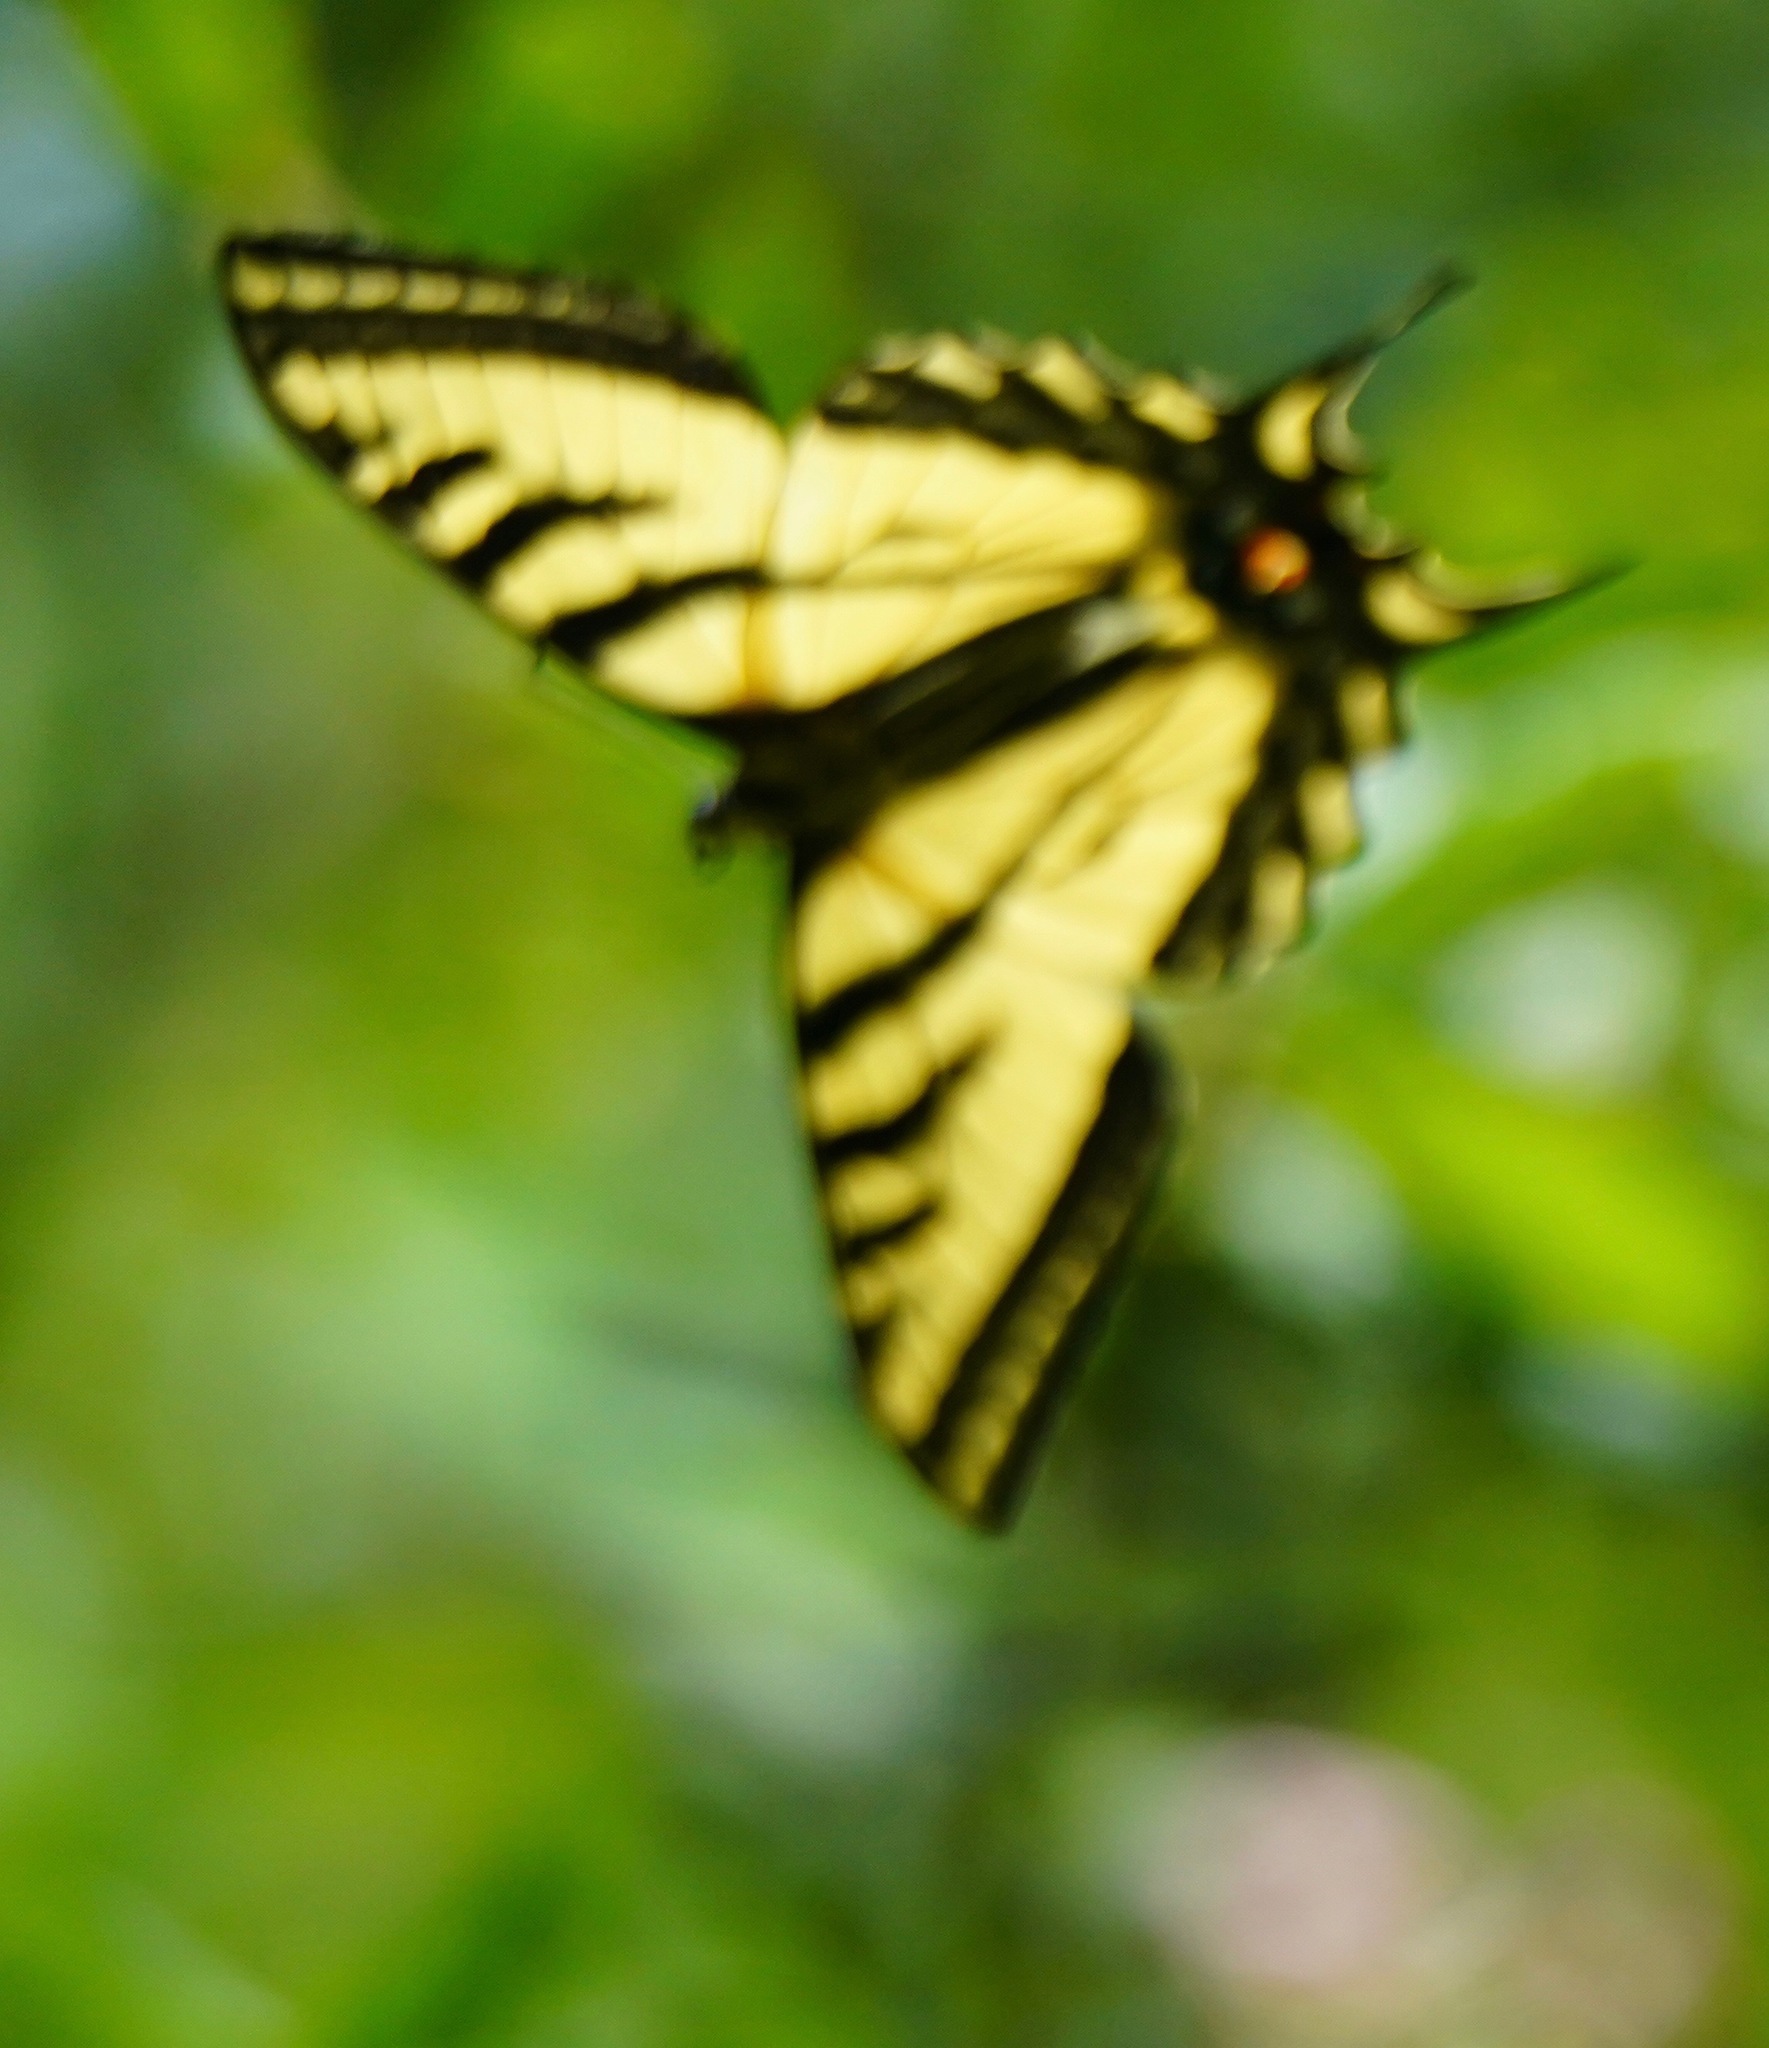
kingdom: Animalia
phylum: Arthropoda
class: Insecta
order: Lepidoptera
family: Papilionidae
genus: Papilio
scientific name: Papilio rutulus
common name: Western tiger swallowtail
